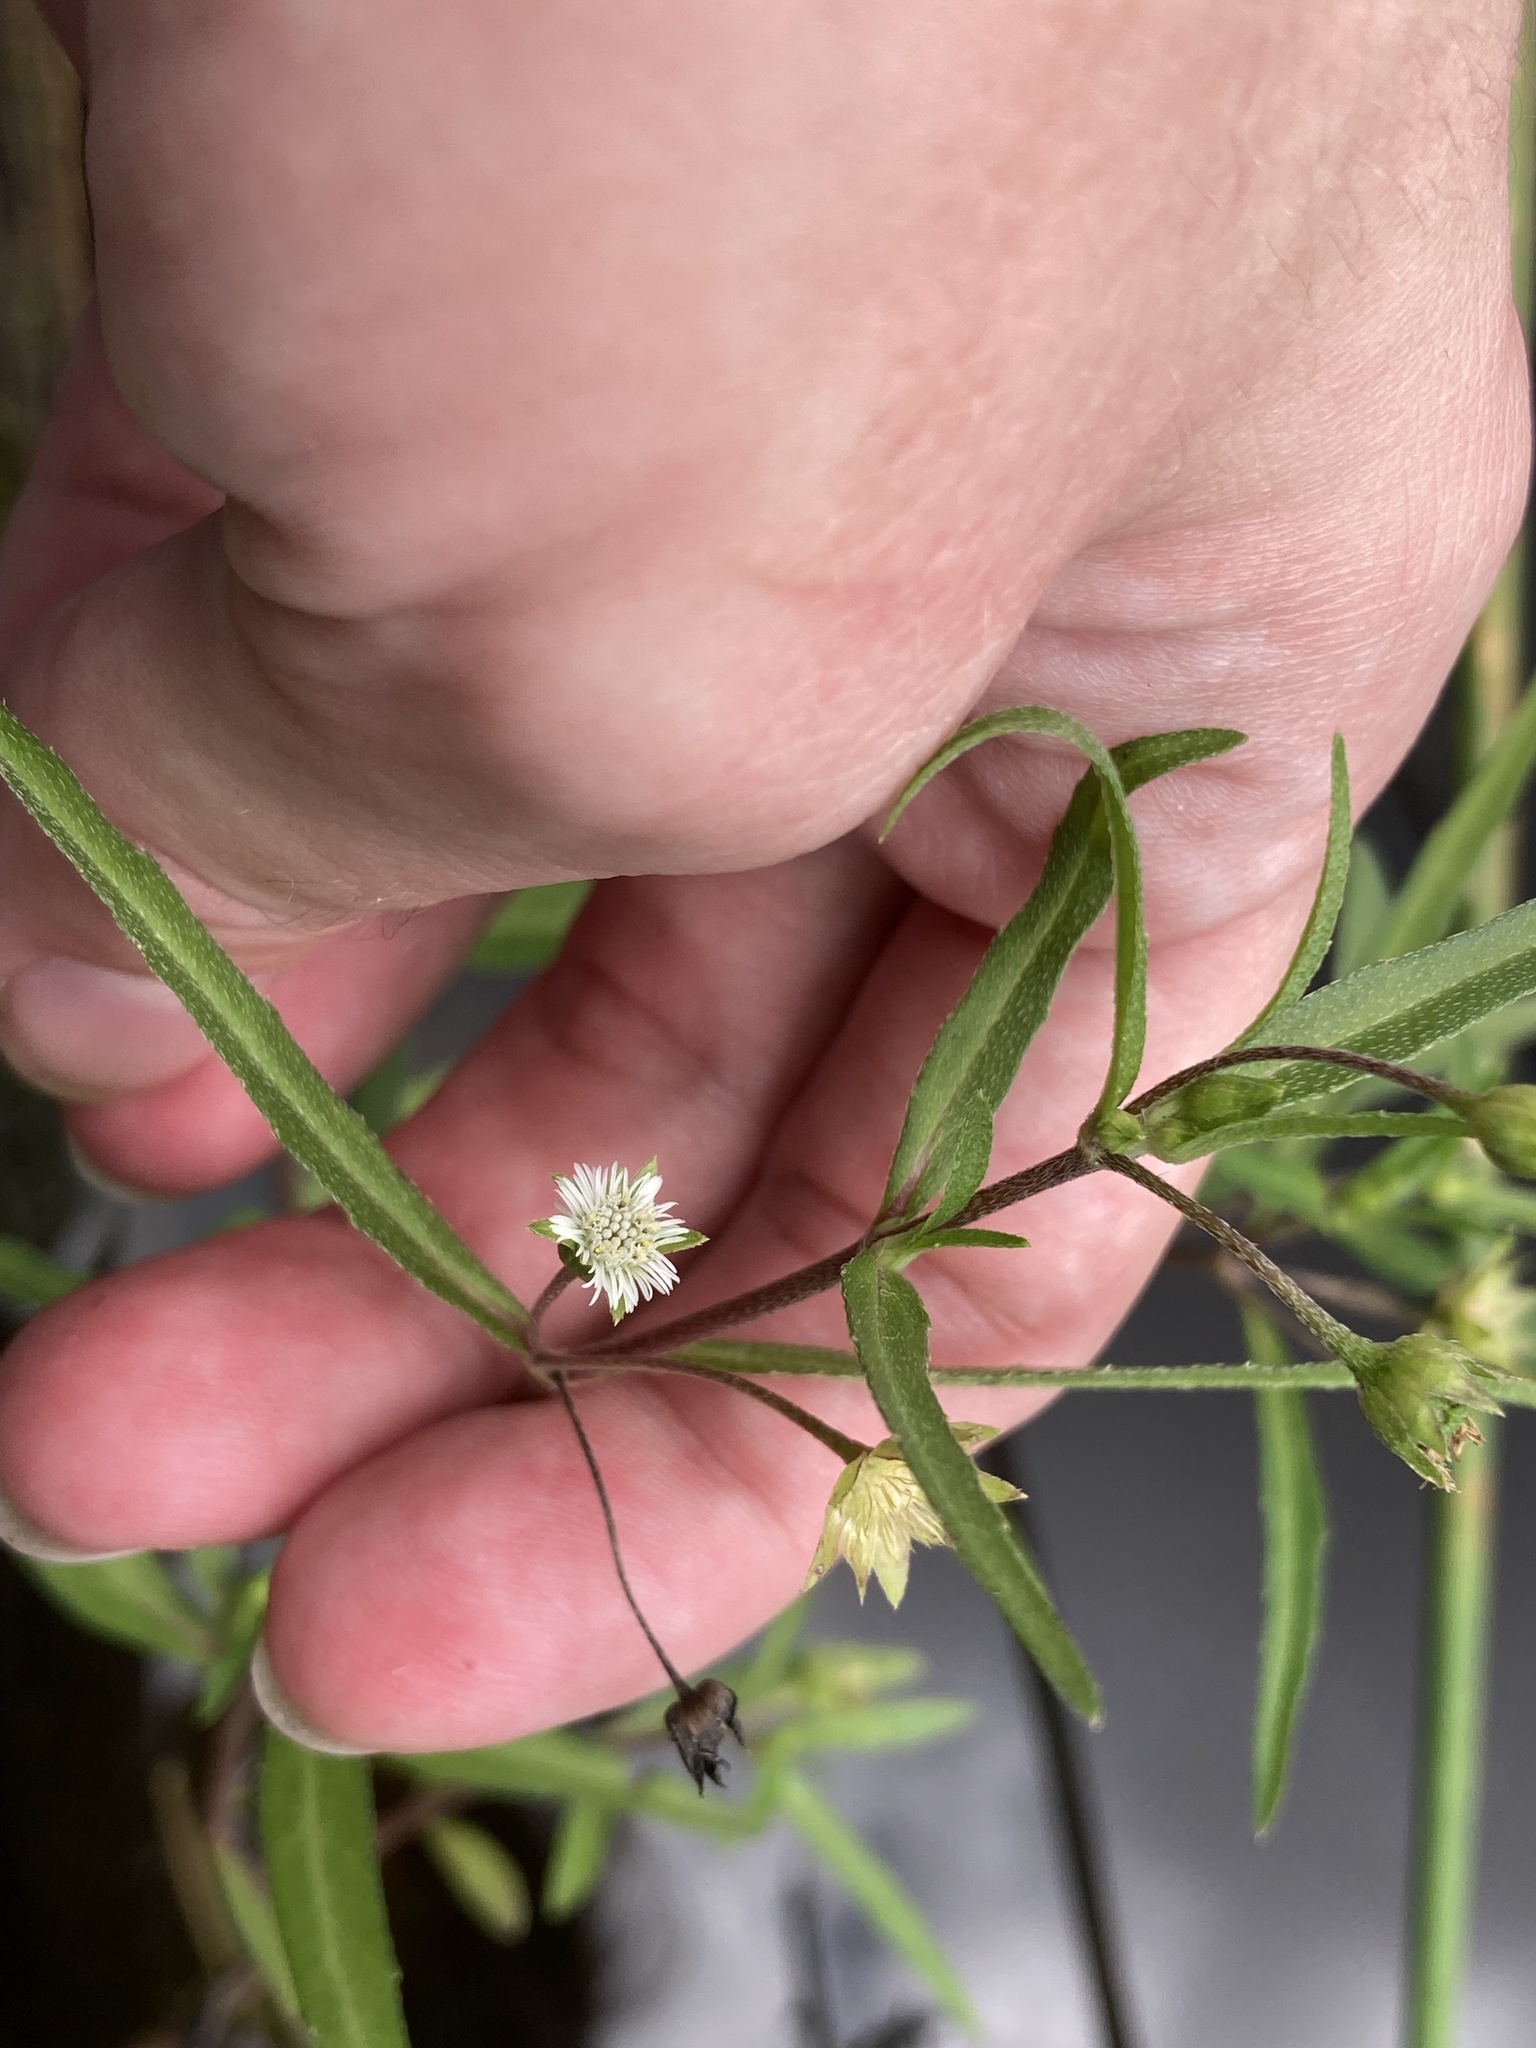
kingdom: Plantae
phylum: Tracheophyta
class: Magnoliopsida
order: Asterales
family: Asteraceae
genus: Eclipta
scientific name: Eclipta prostrata
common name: False daisy
